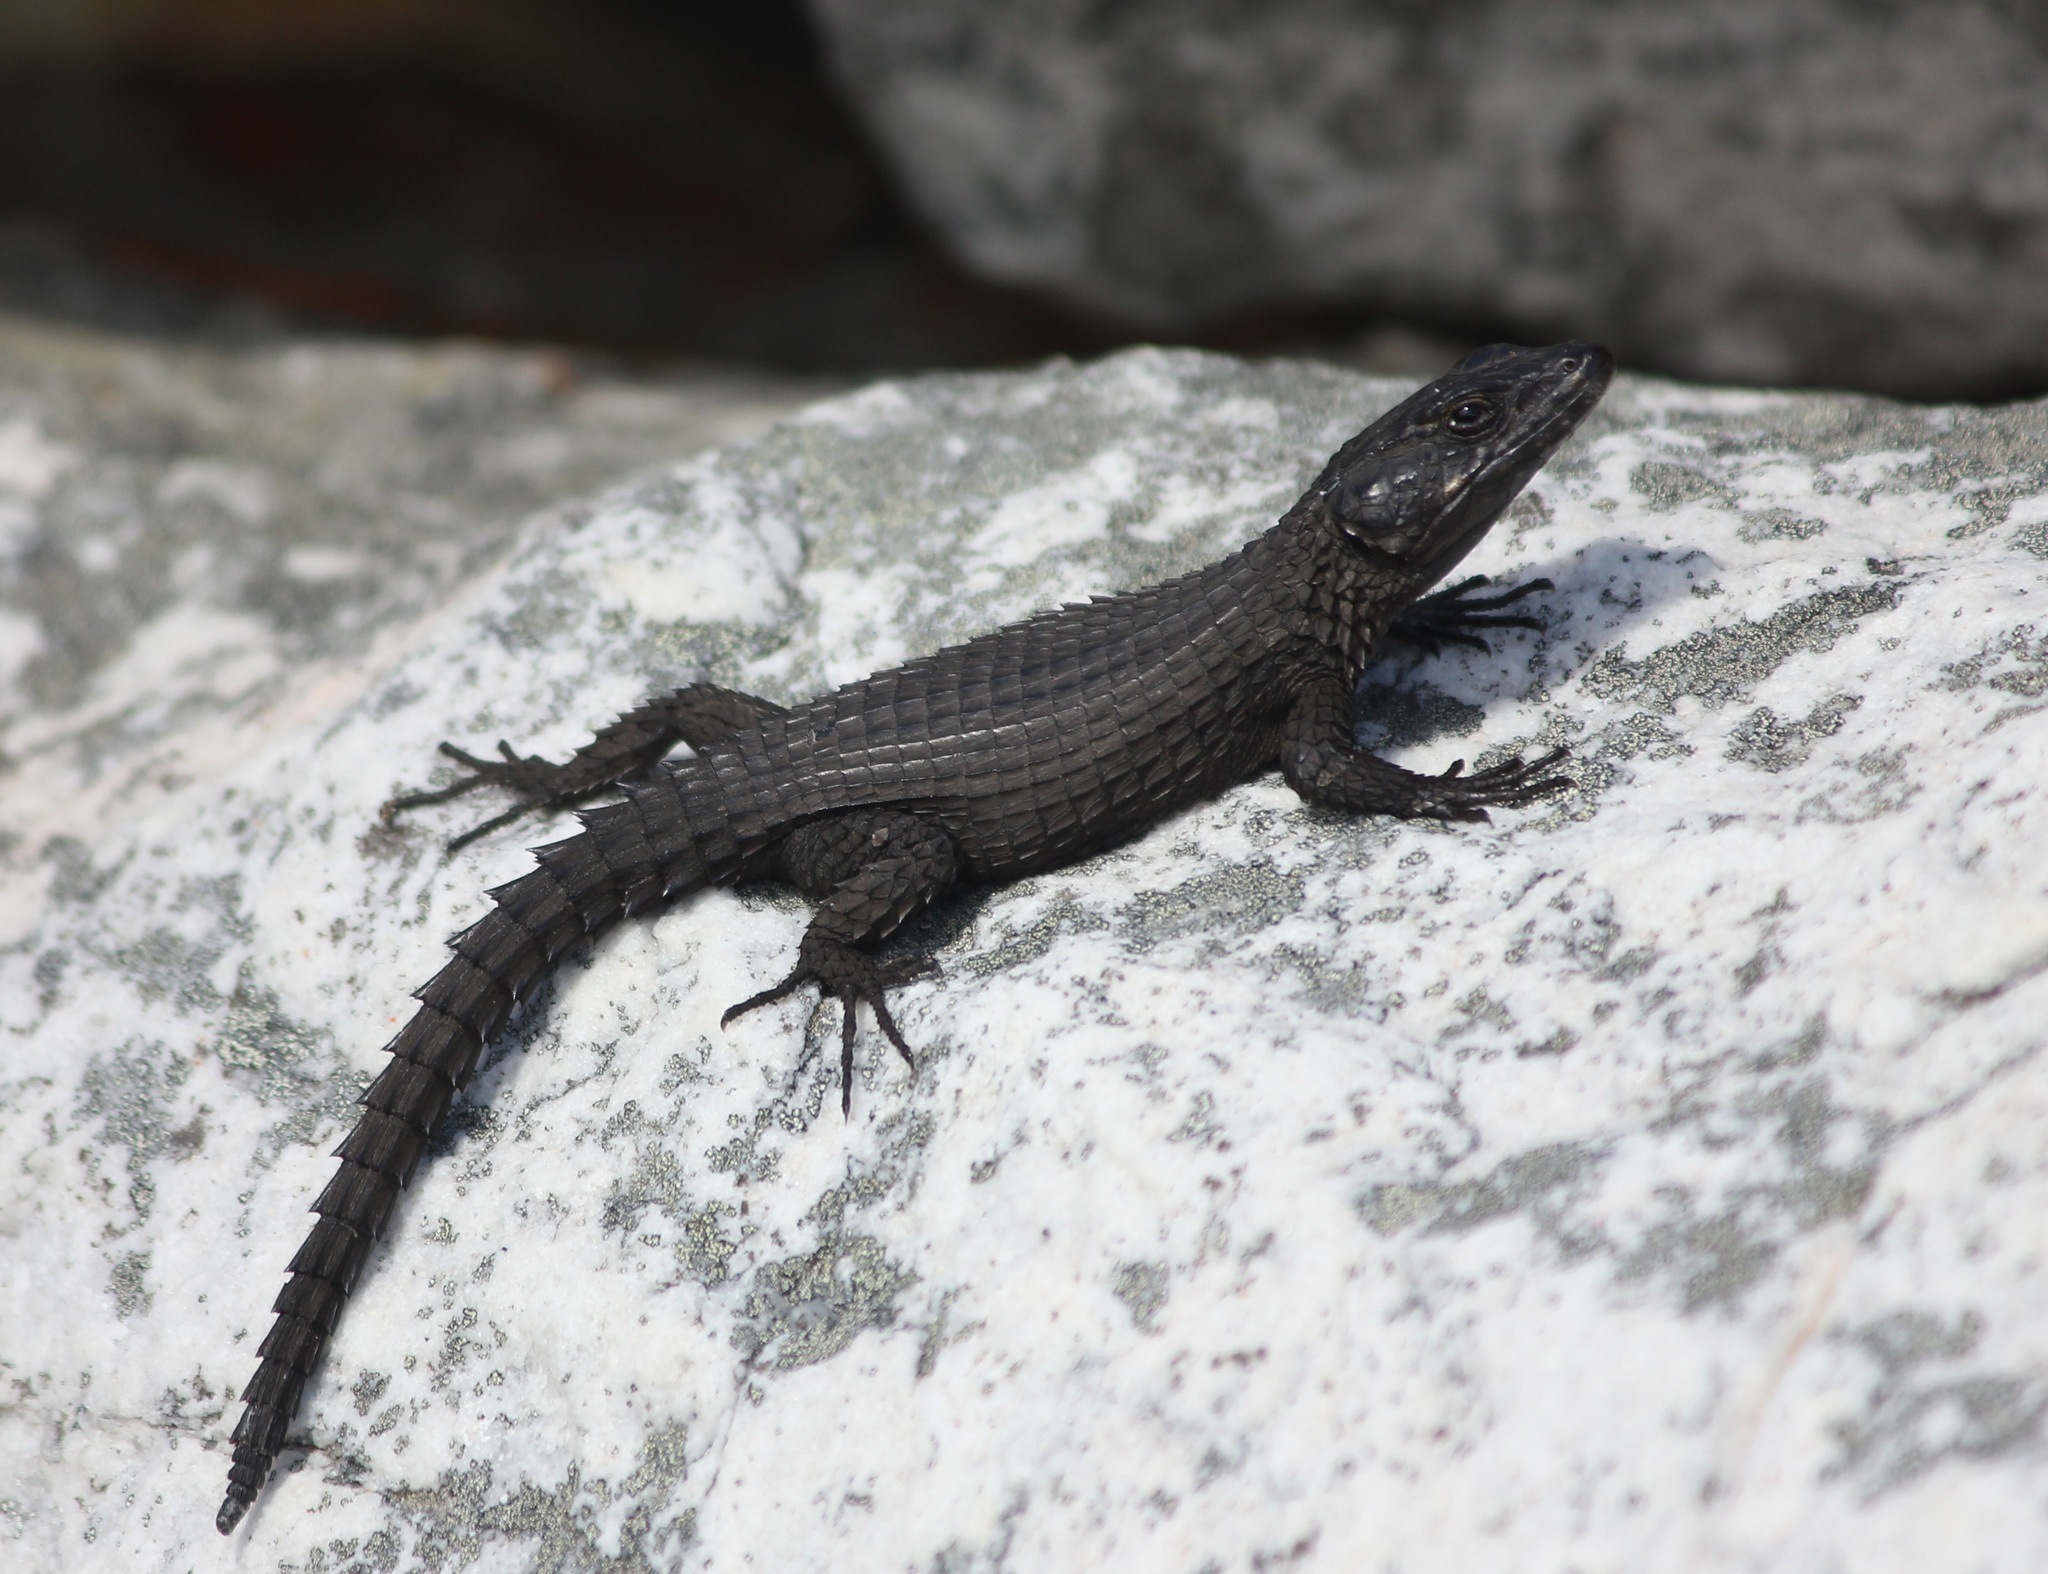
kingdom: Animalia
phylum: Chordata
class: Squamata
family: Cordylidae
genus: Cordylus
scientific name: Cordylus niger
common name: Black girdled lizard
